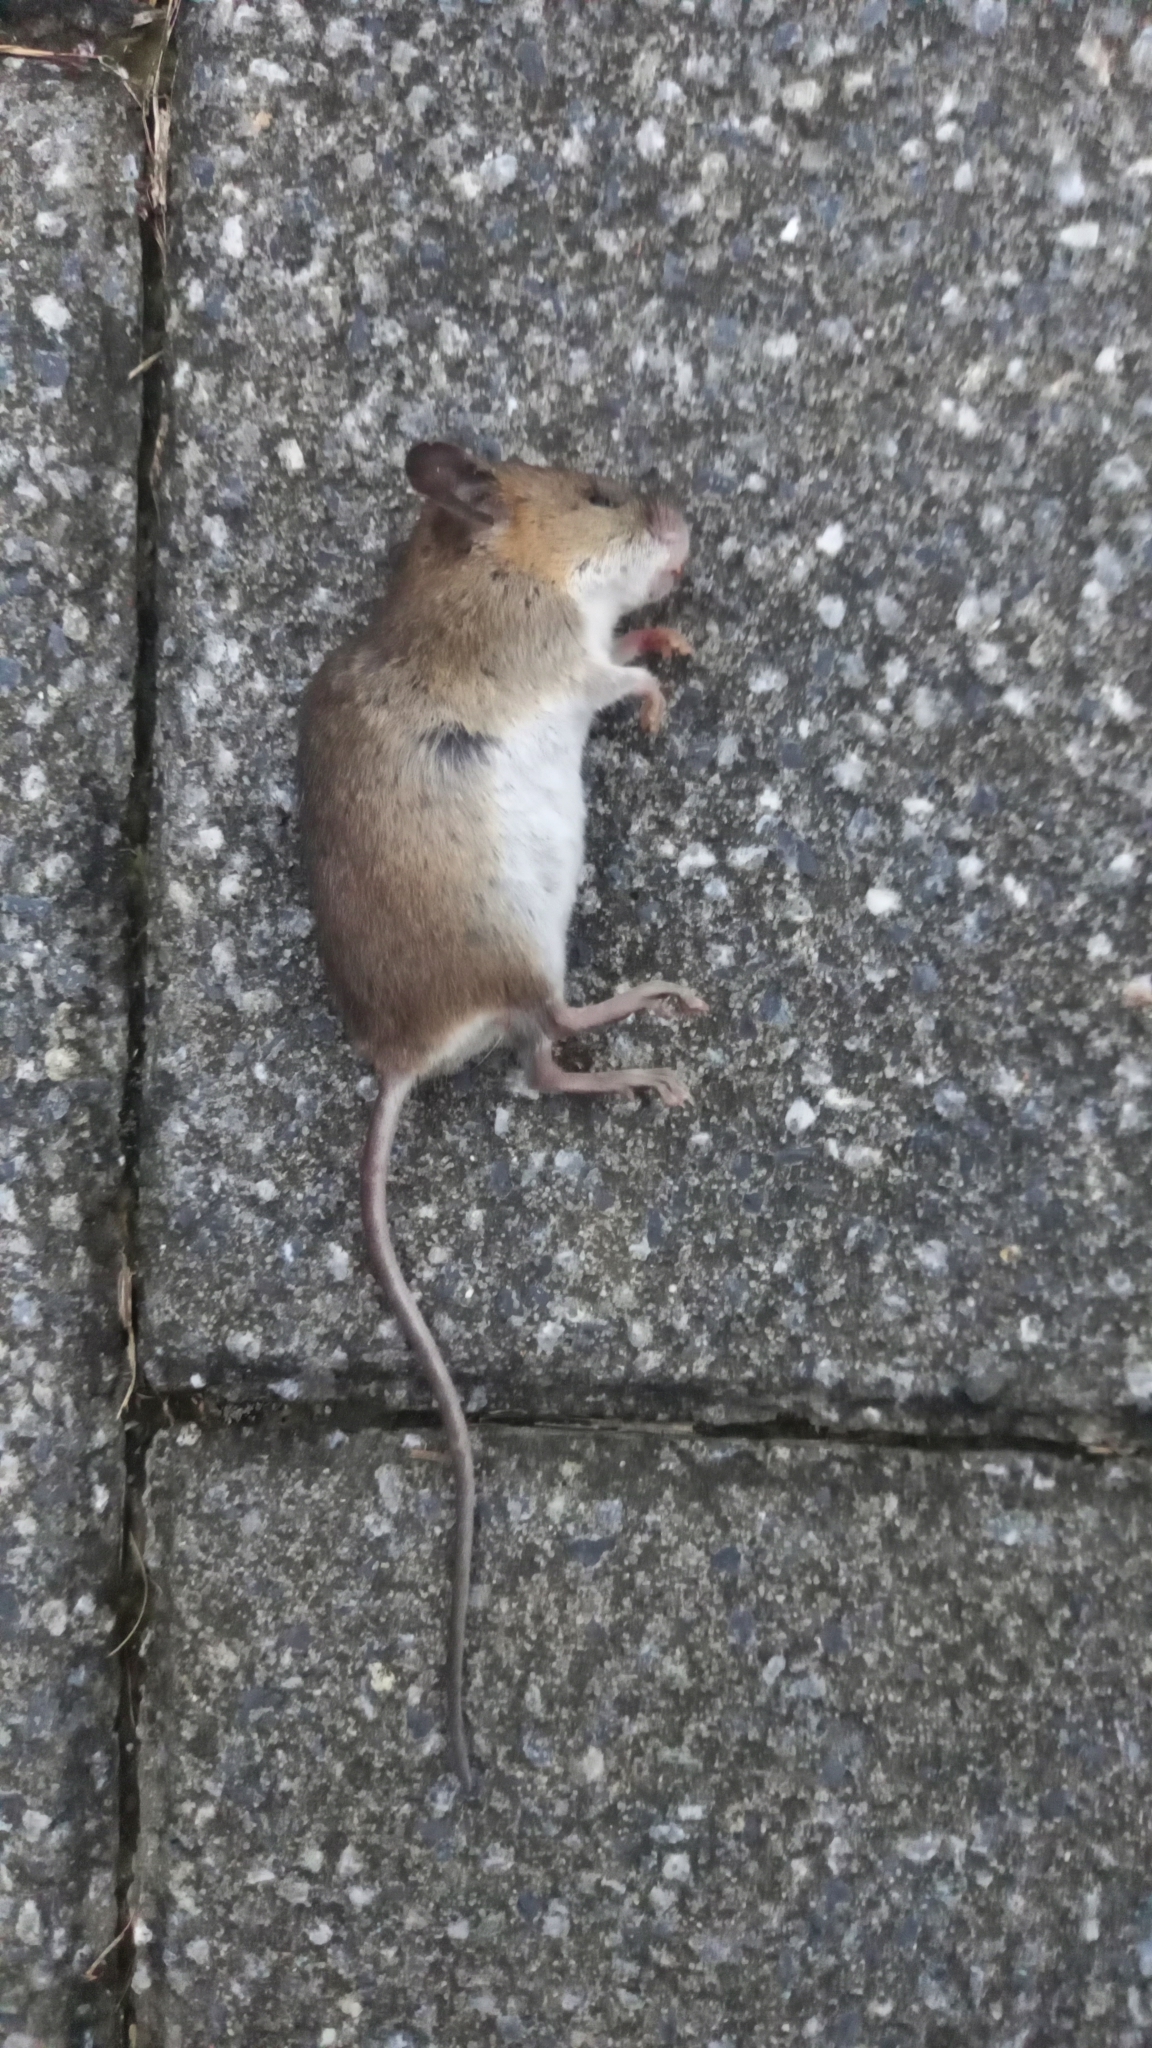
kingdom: Animalia
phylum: Chordata
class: Mammalia
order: Rodentia
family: Muridae
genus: Micromys
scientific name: Micromys minutus
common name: Harvest mouse
